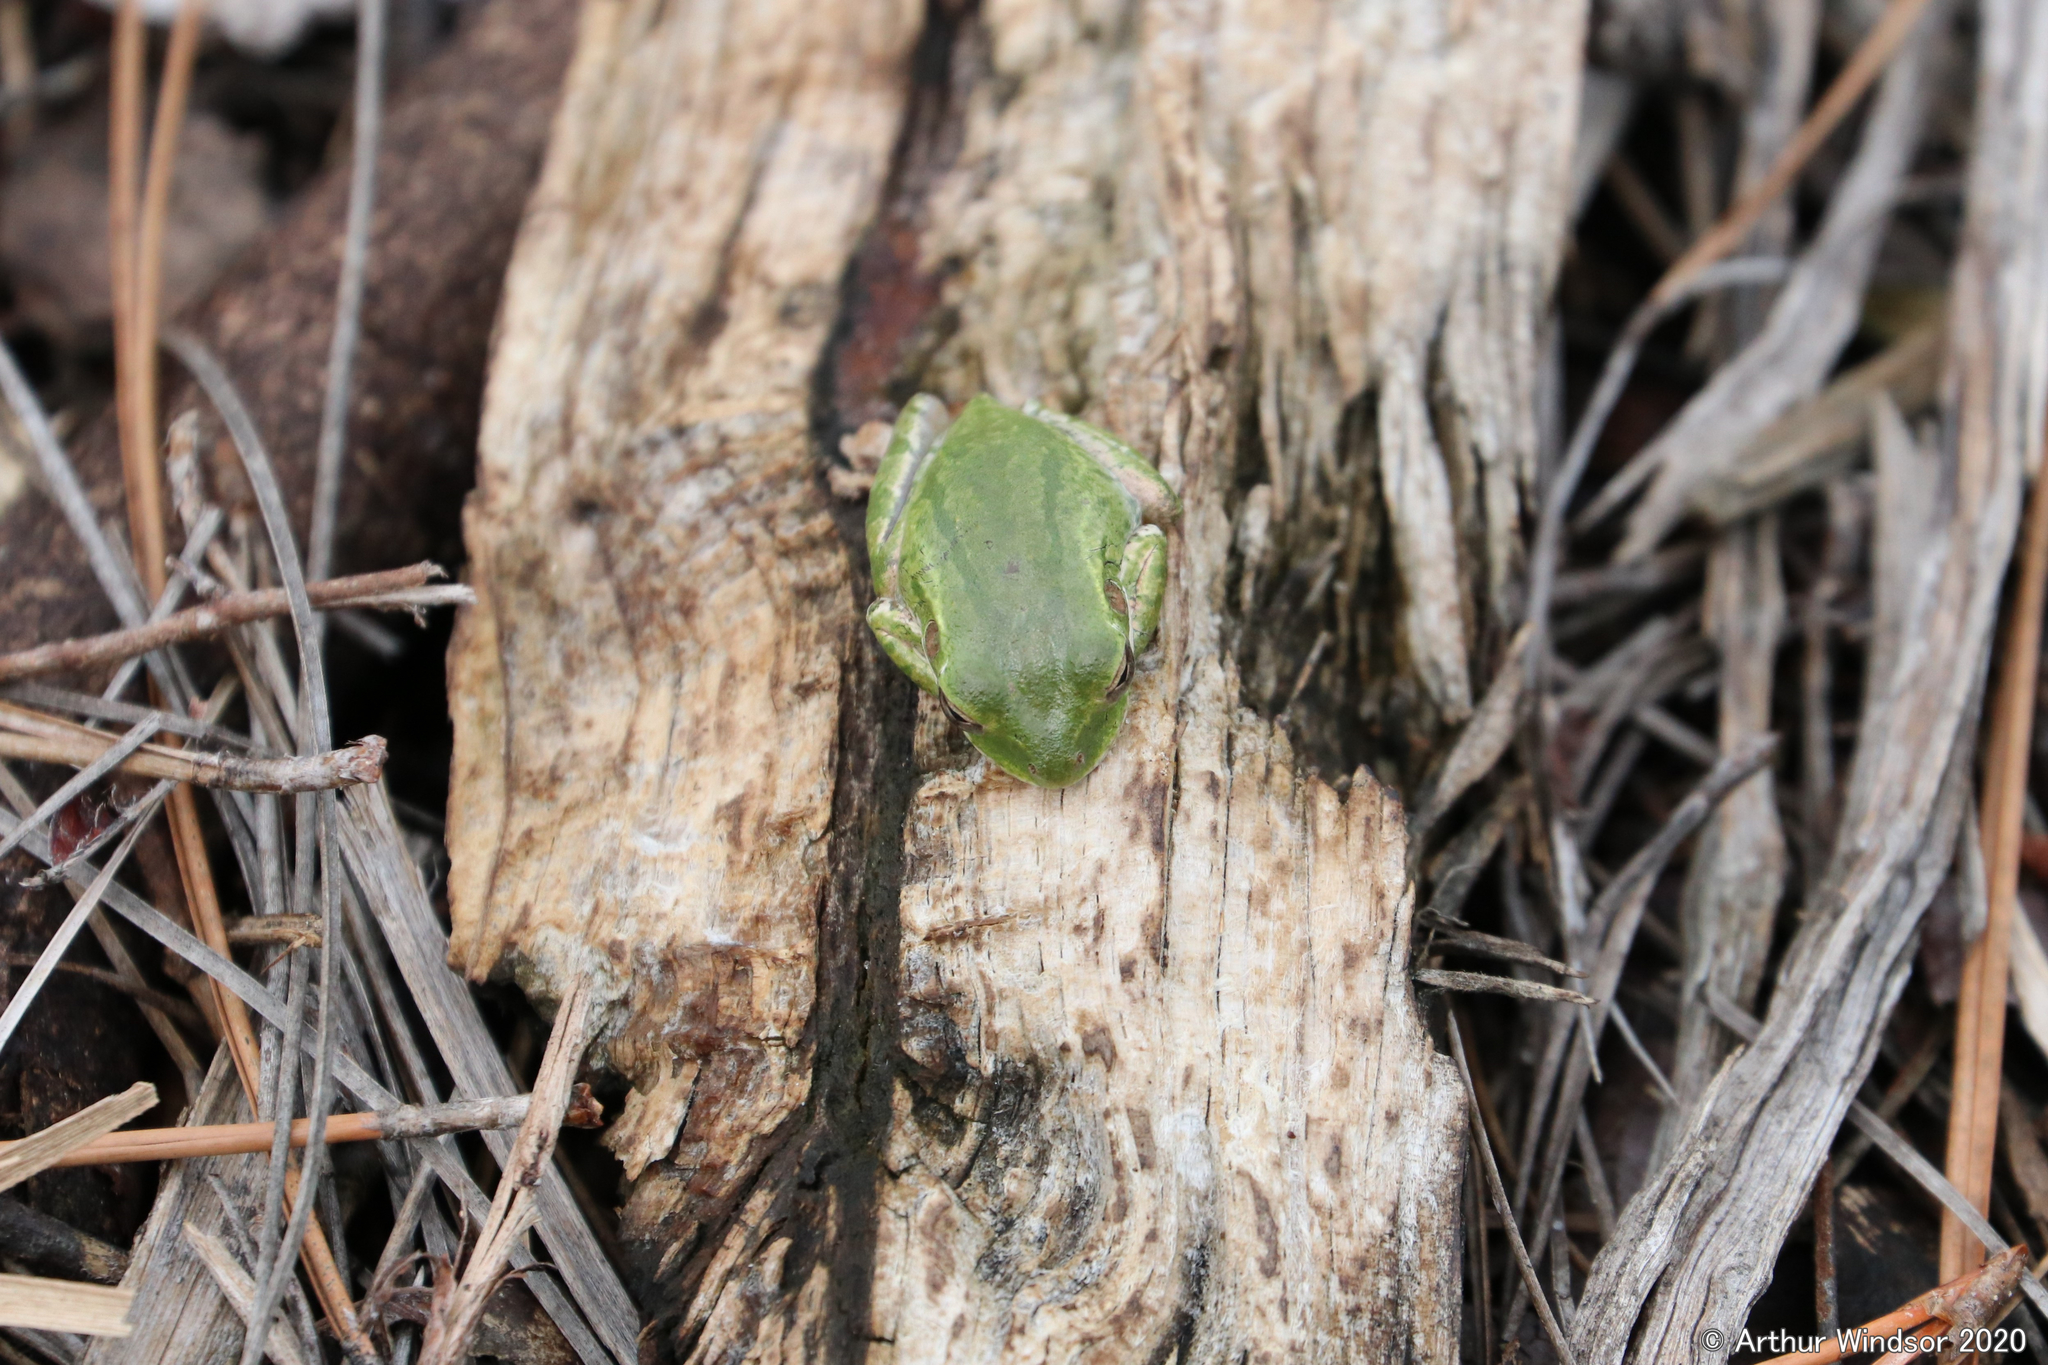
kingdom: Animalia
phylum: Chordata
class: Amphibia
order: Anura
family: Hylidae
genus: Osteopilus
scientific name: Osteopilus septentrionalis
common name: Cuban treefrog
